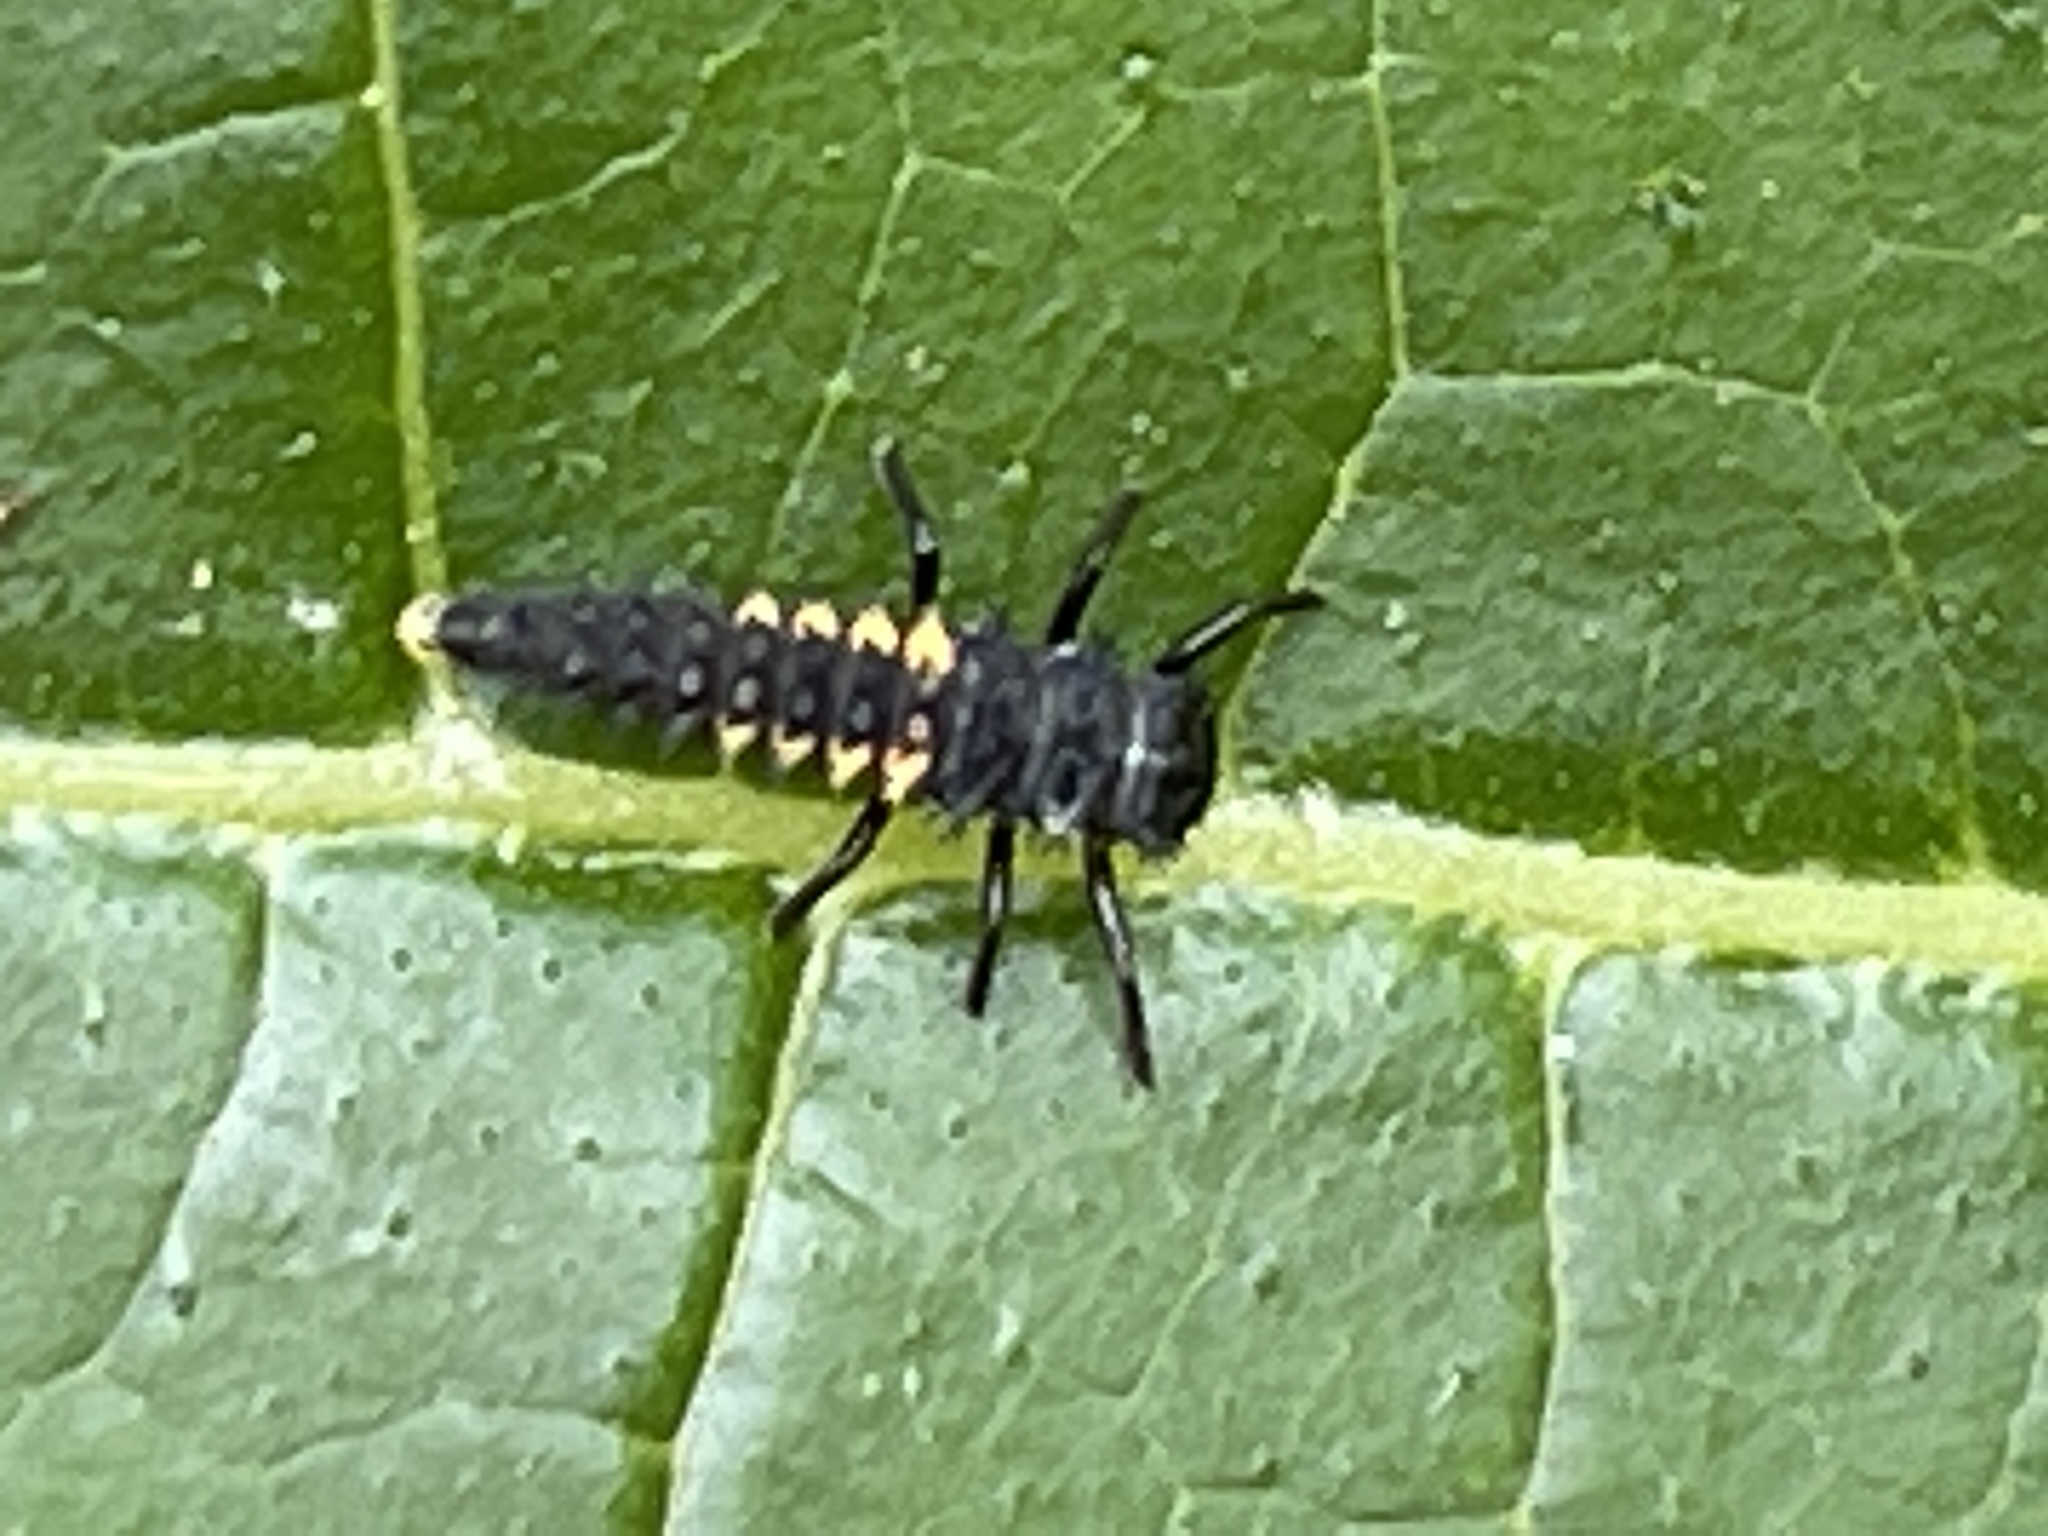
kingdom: Animalia
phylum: Arthropoda
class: Insecta
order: Coleoptera
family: Coccinellidae
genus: Harmonia
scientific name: Harmonia axyridis
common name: Harlequin ladybird
